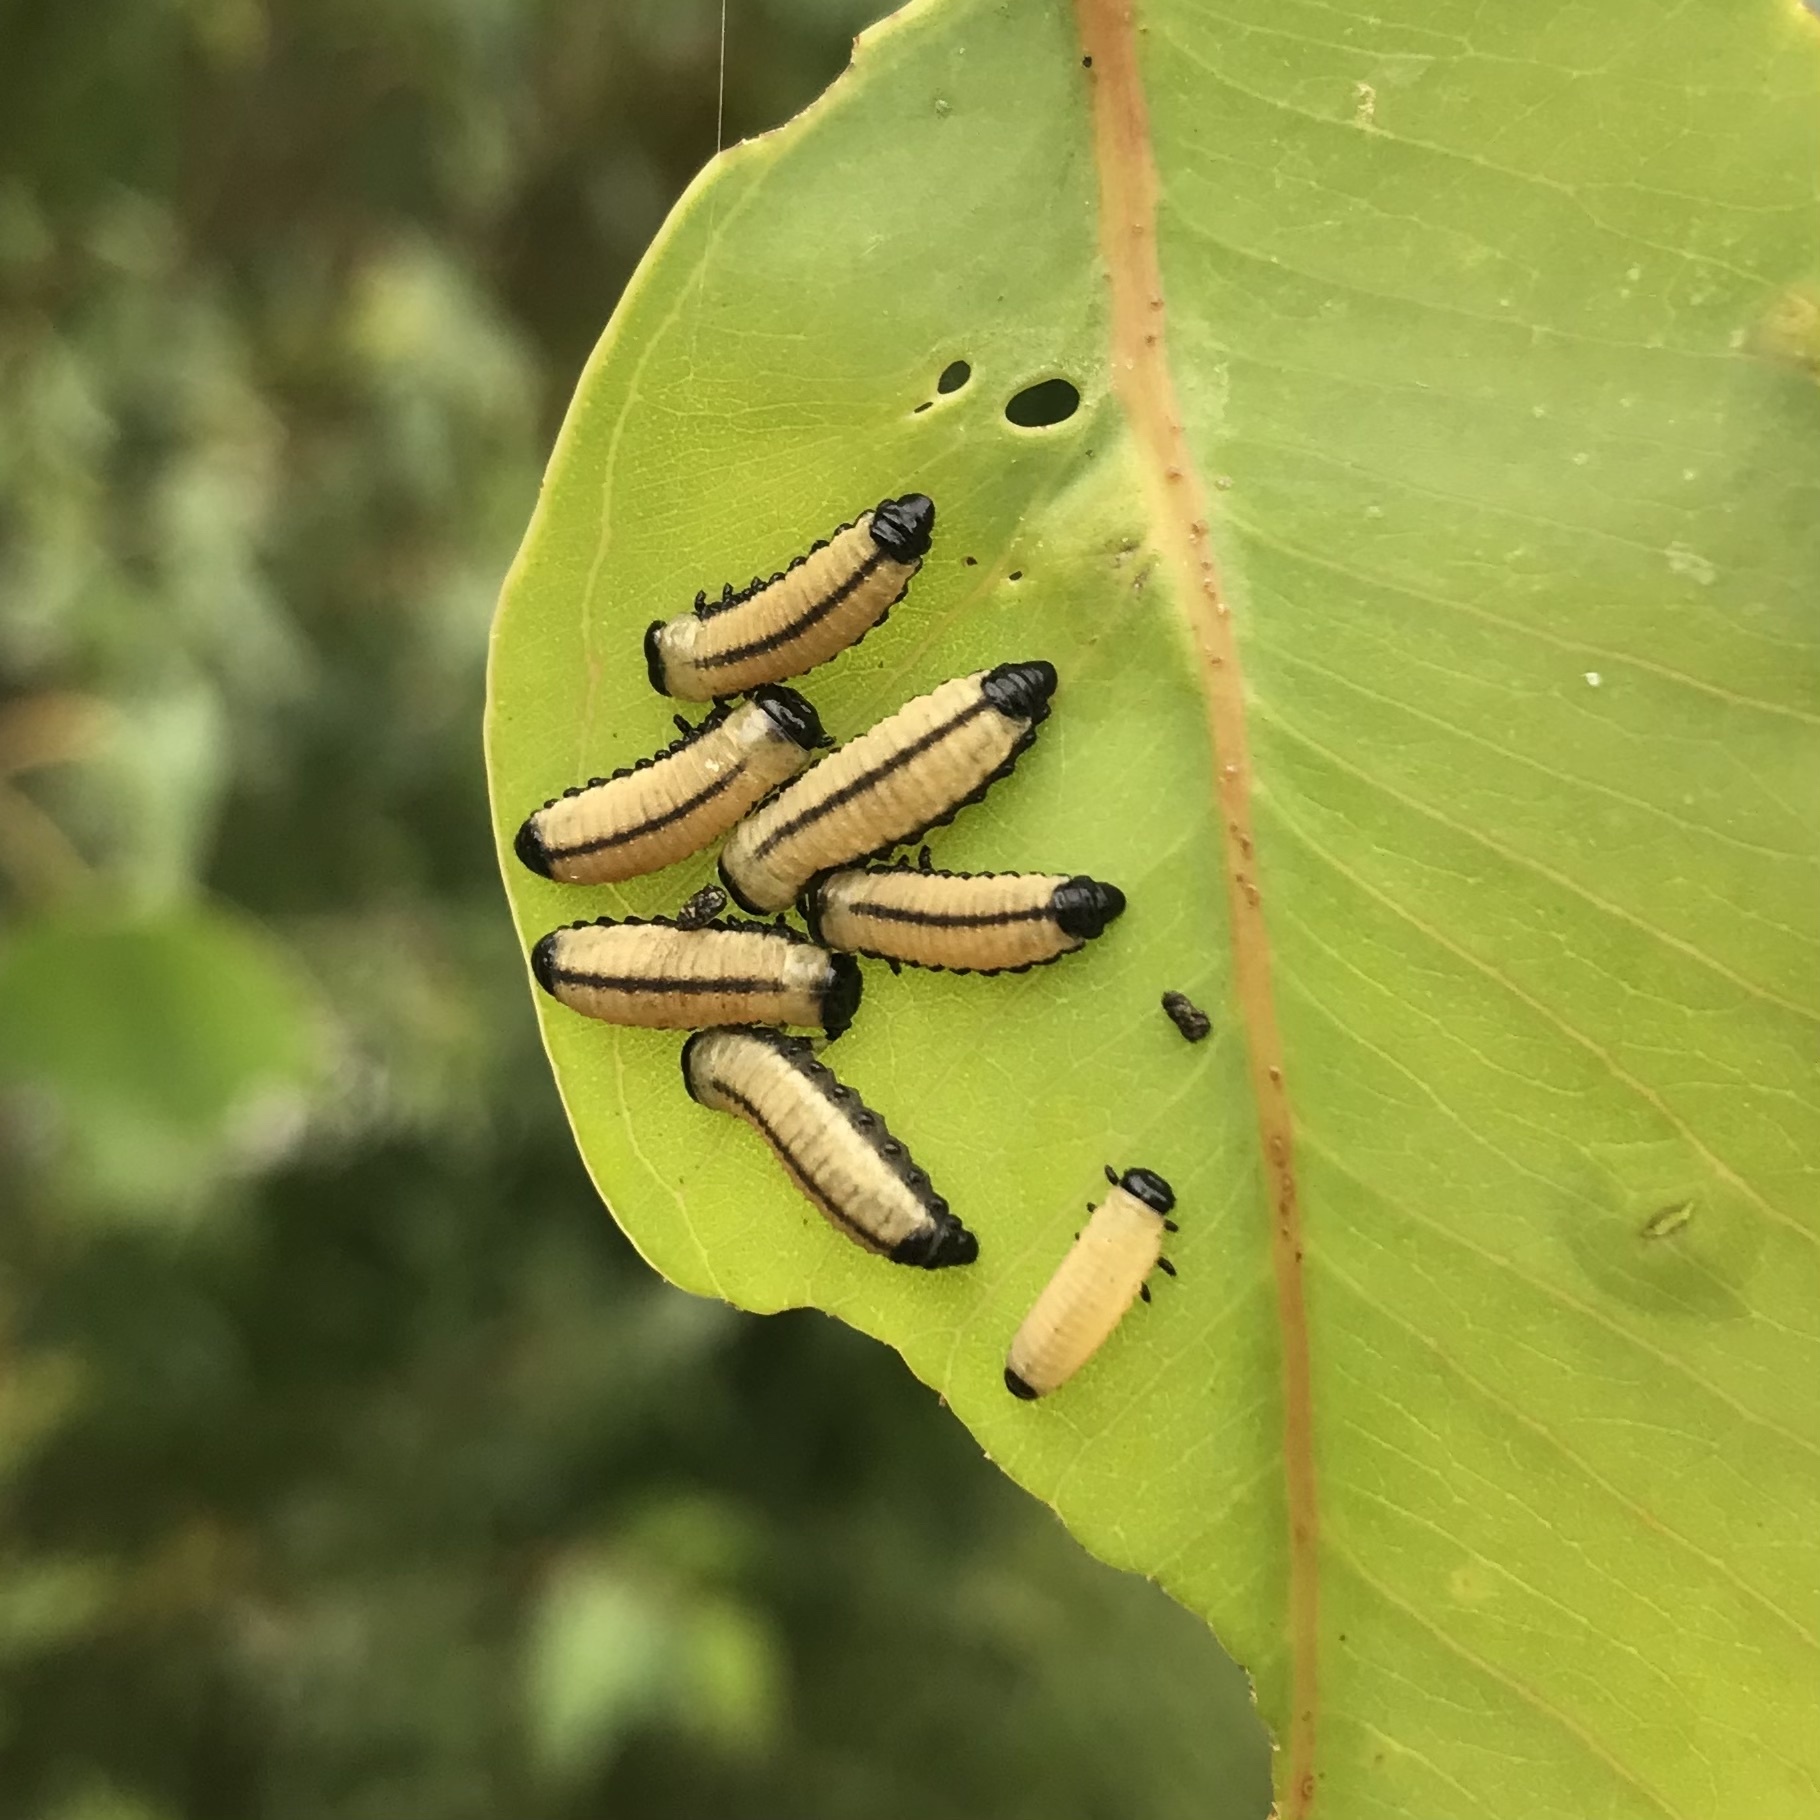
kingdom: Animalia
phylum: Arthropoda
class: Insecta
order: Coleoptera
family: Chrysomelidae
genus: Paropsisterna
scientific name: Paropsisterna cloelia
